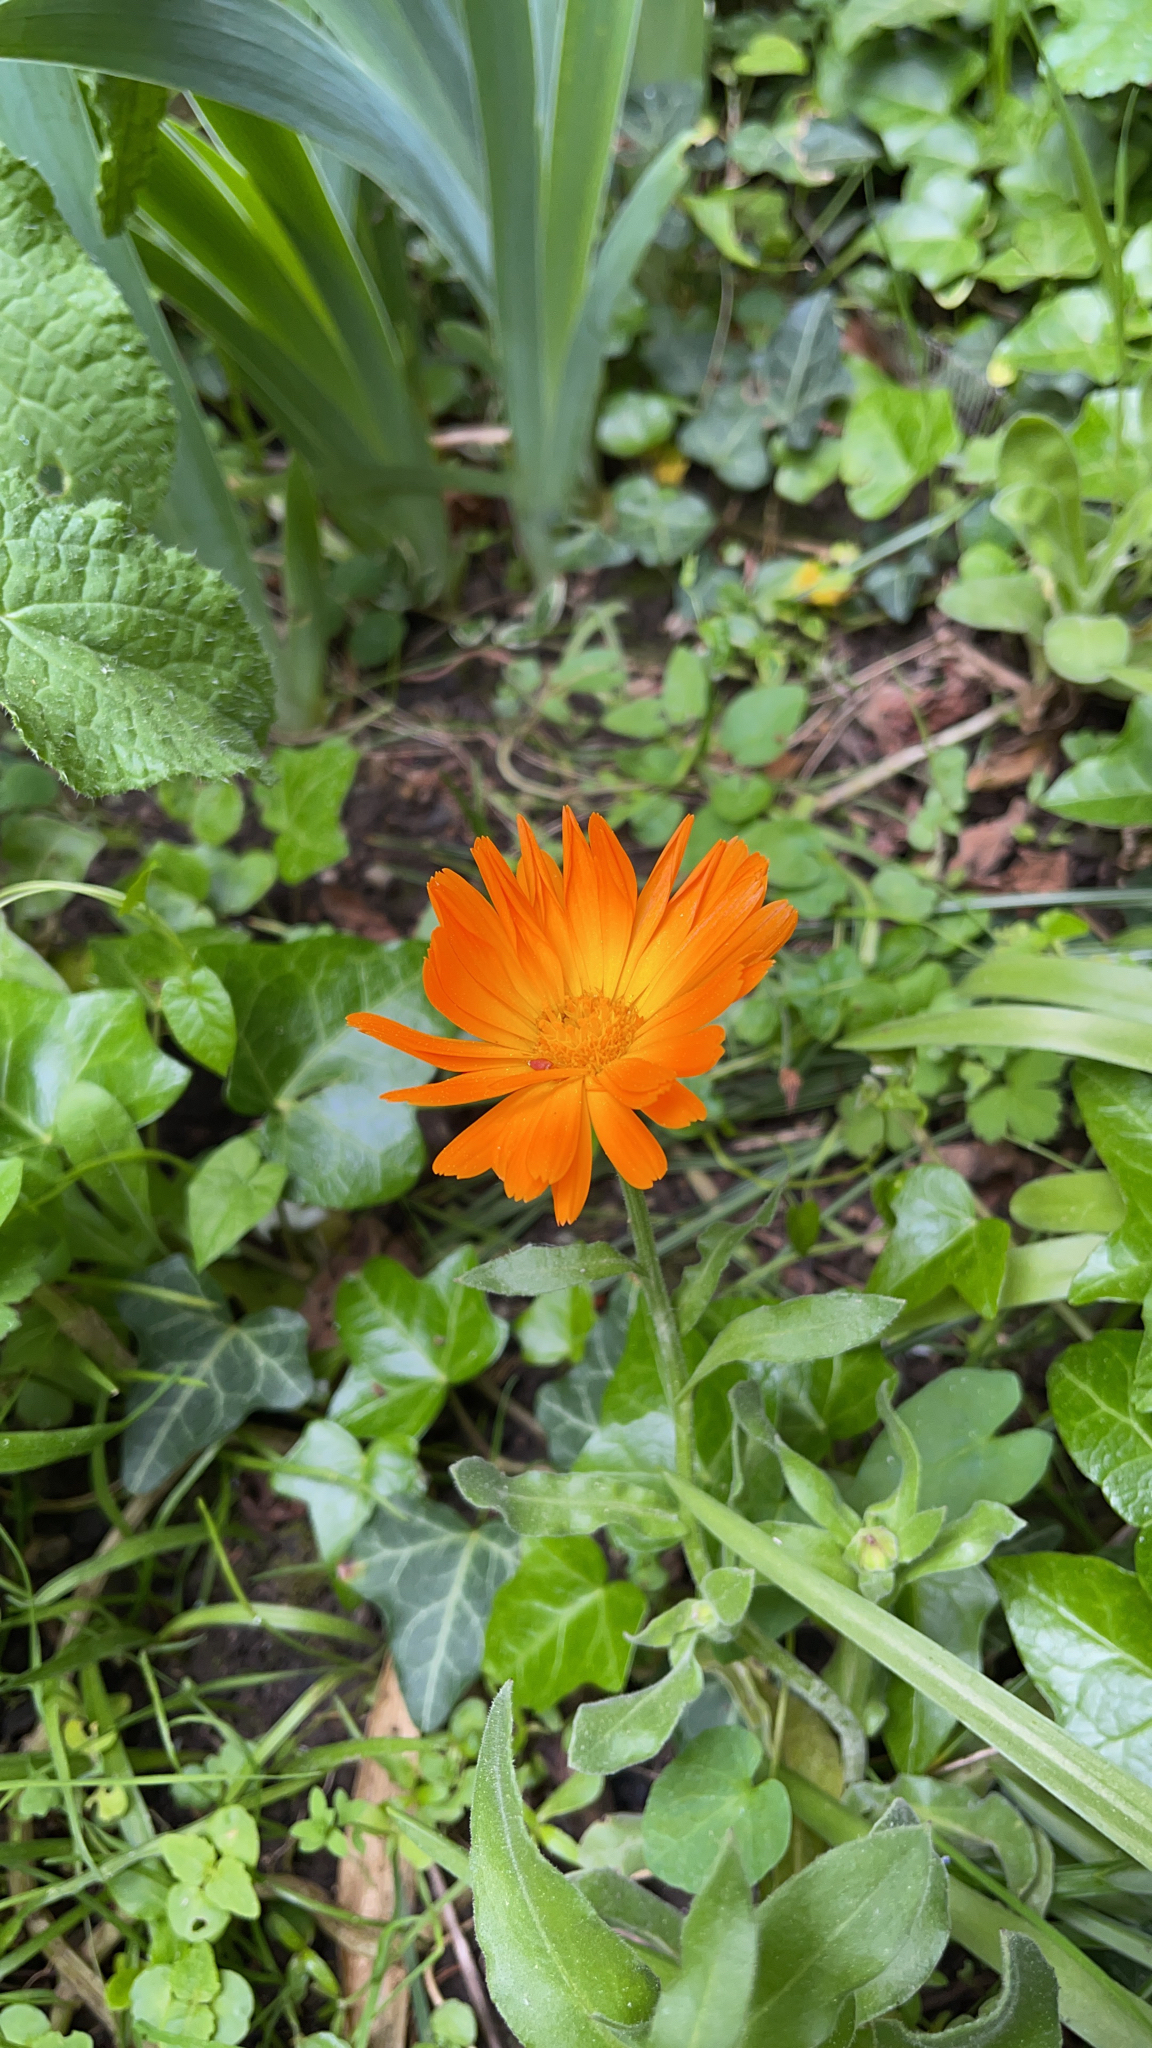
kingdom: Plantae
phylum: Tracheophyta
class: Magnoliopsida
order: Asterales
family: Asteraceae
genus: Calendula
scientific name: Calendula officinalis
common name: Pot marigold
